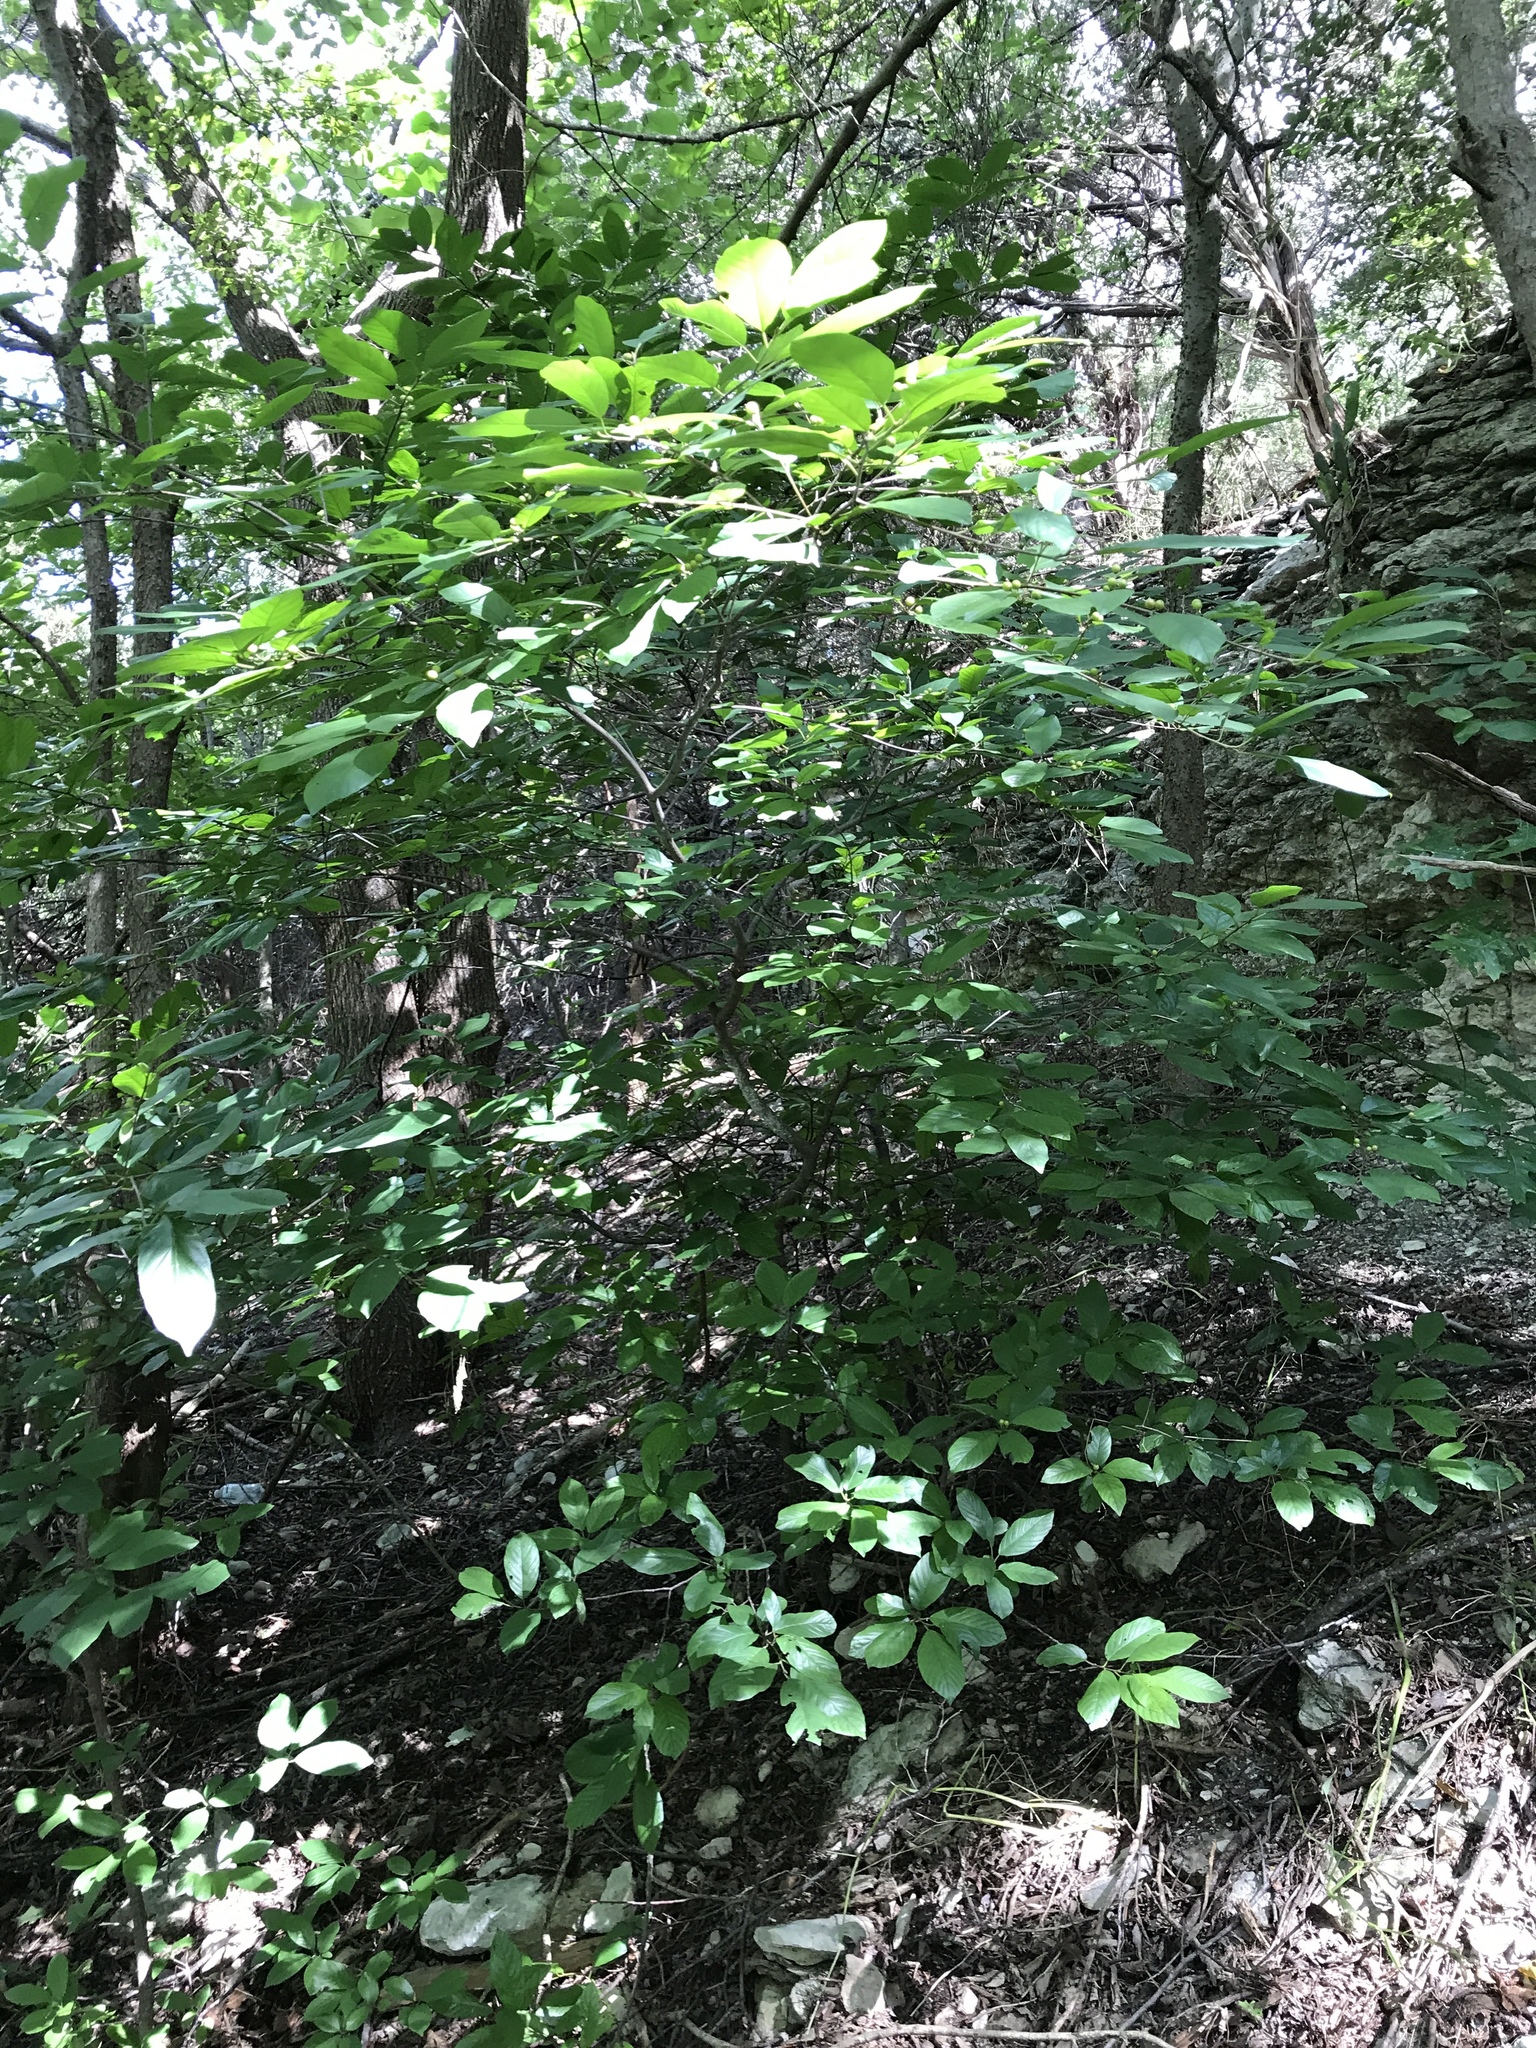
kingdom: Plantae
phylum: Tracheophyta
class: Magnoliopsida
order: Rosales
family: Rhamnaceae
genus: Frangula
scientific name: Frangula caroliniana
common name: Carolina buckthorn
